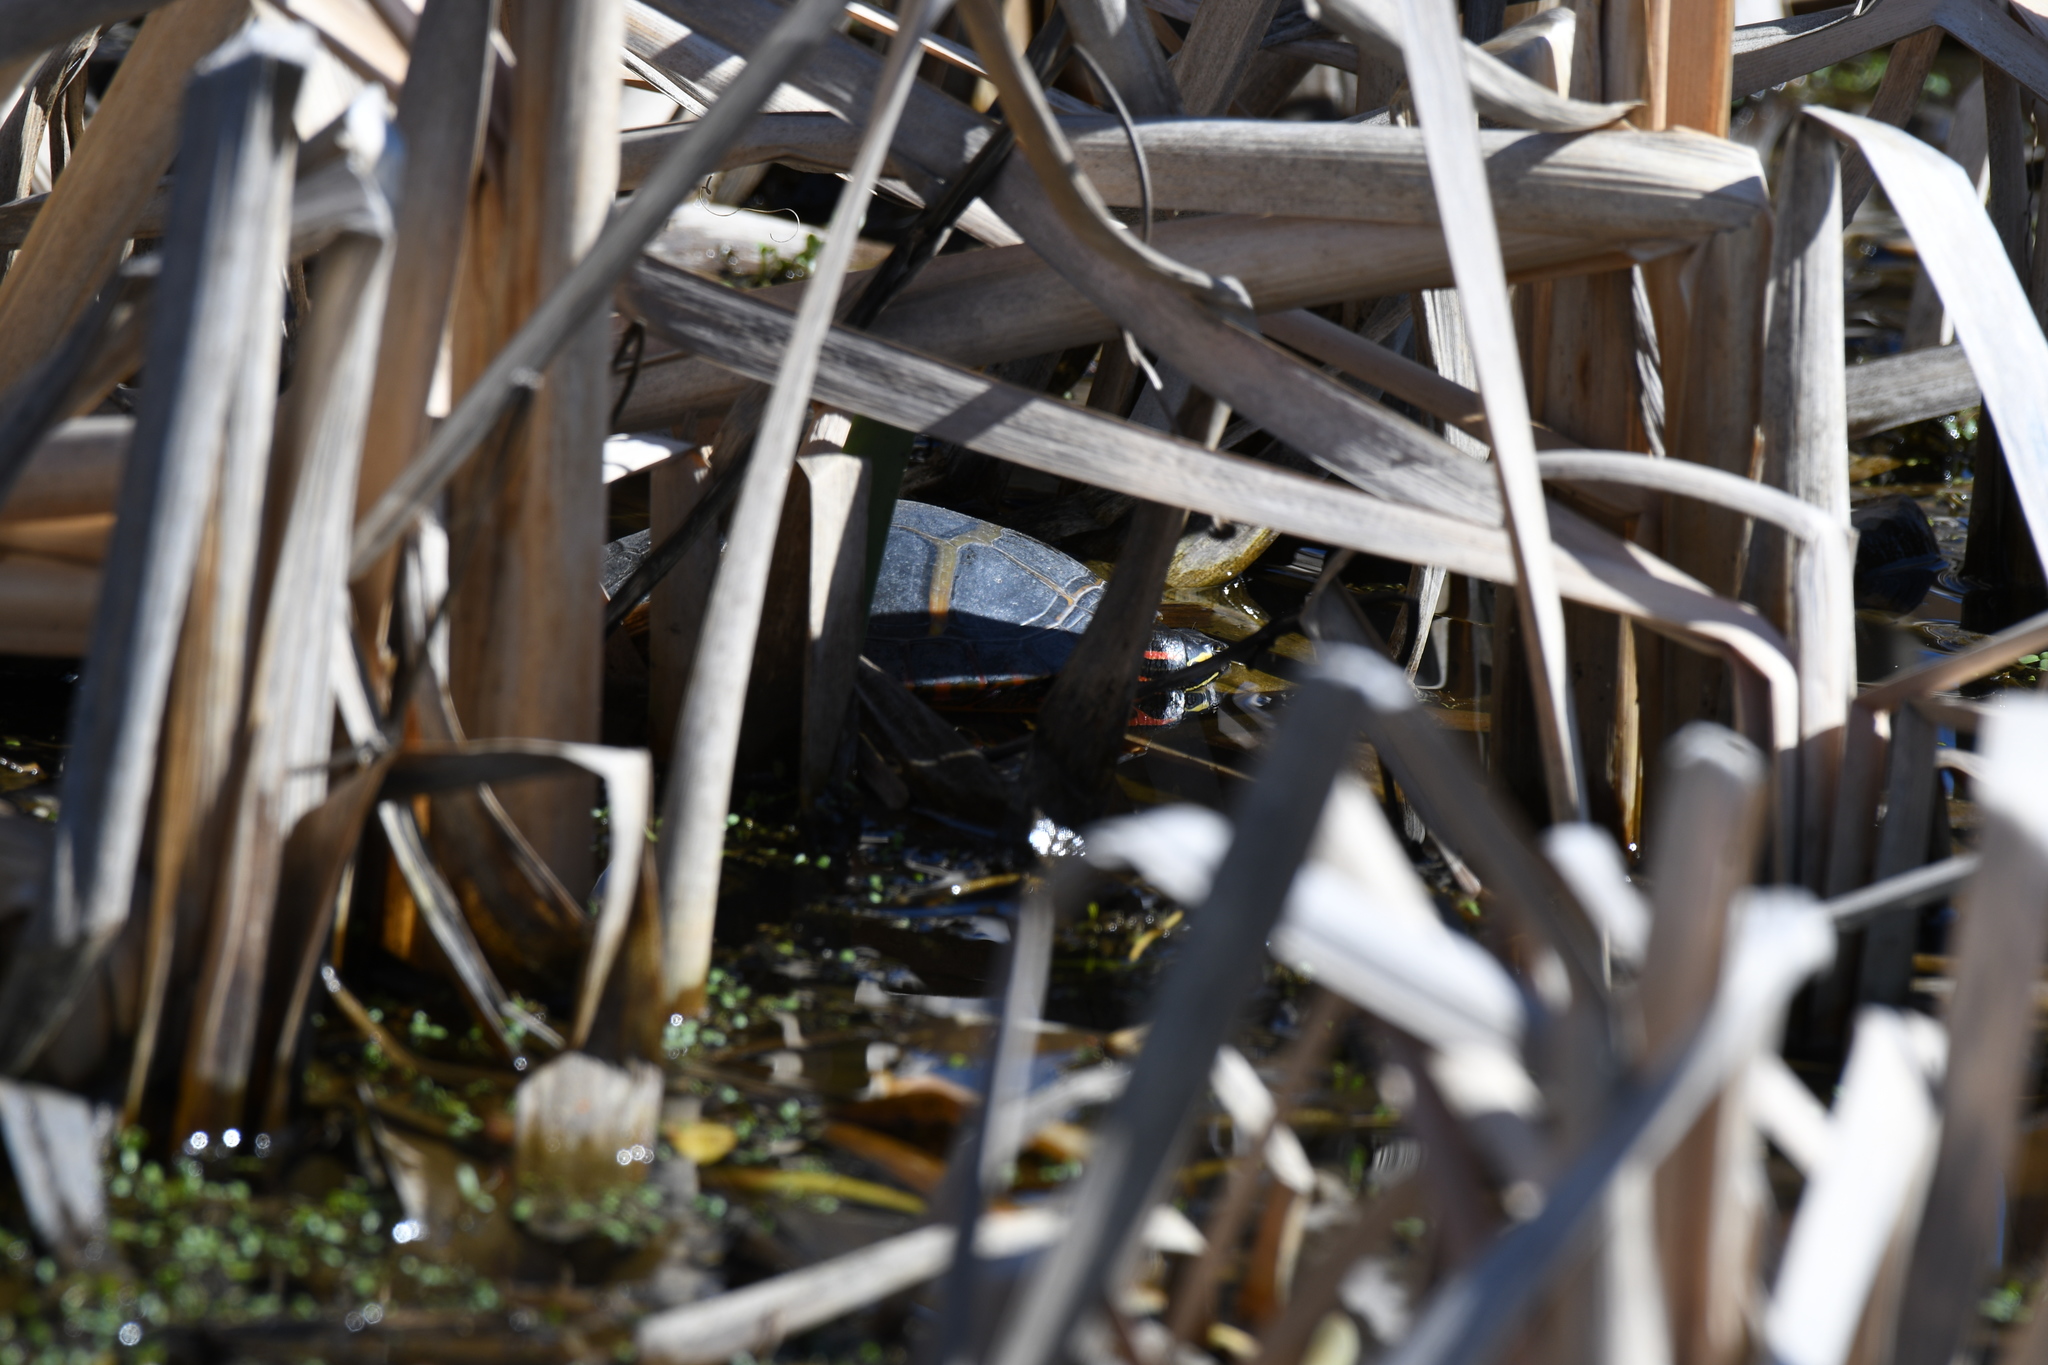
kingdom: Animalia
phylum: Chordata
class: Testudines
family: Emydidae
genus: Chrysemys
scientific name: Chrysemys picta
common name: Painted turtle
